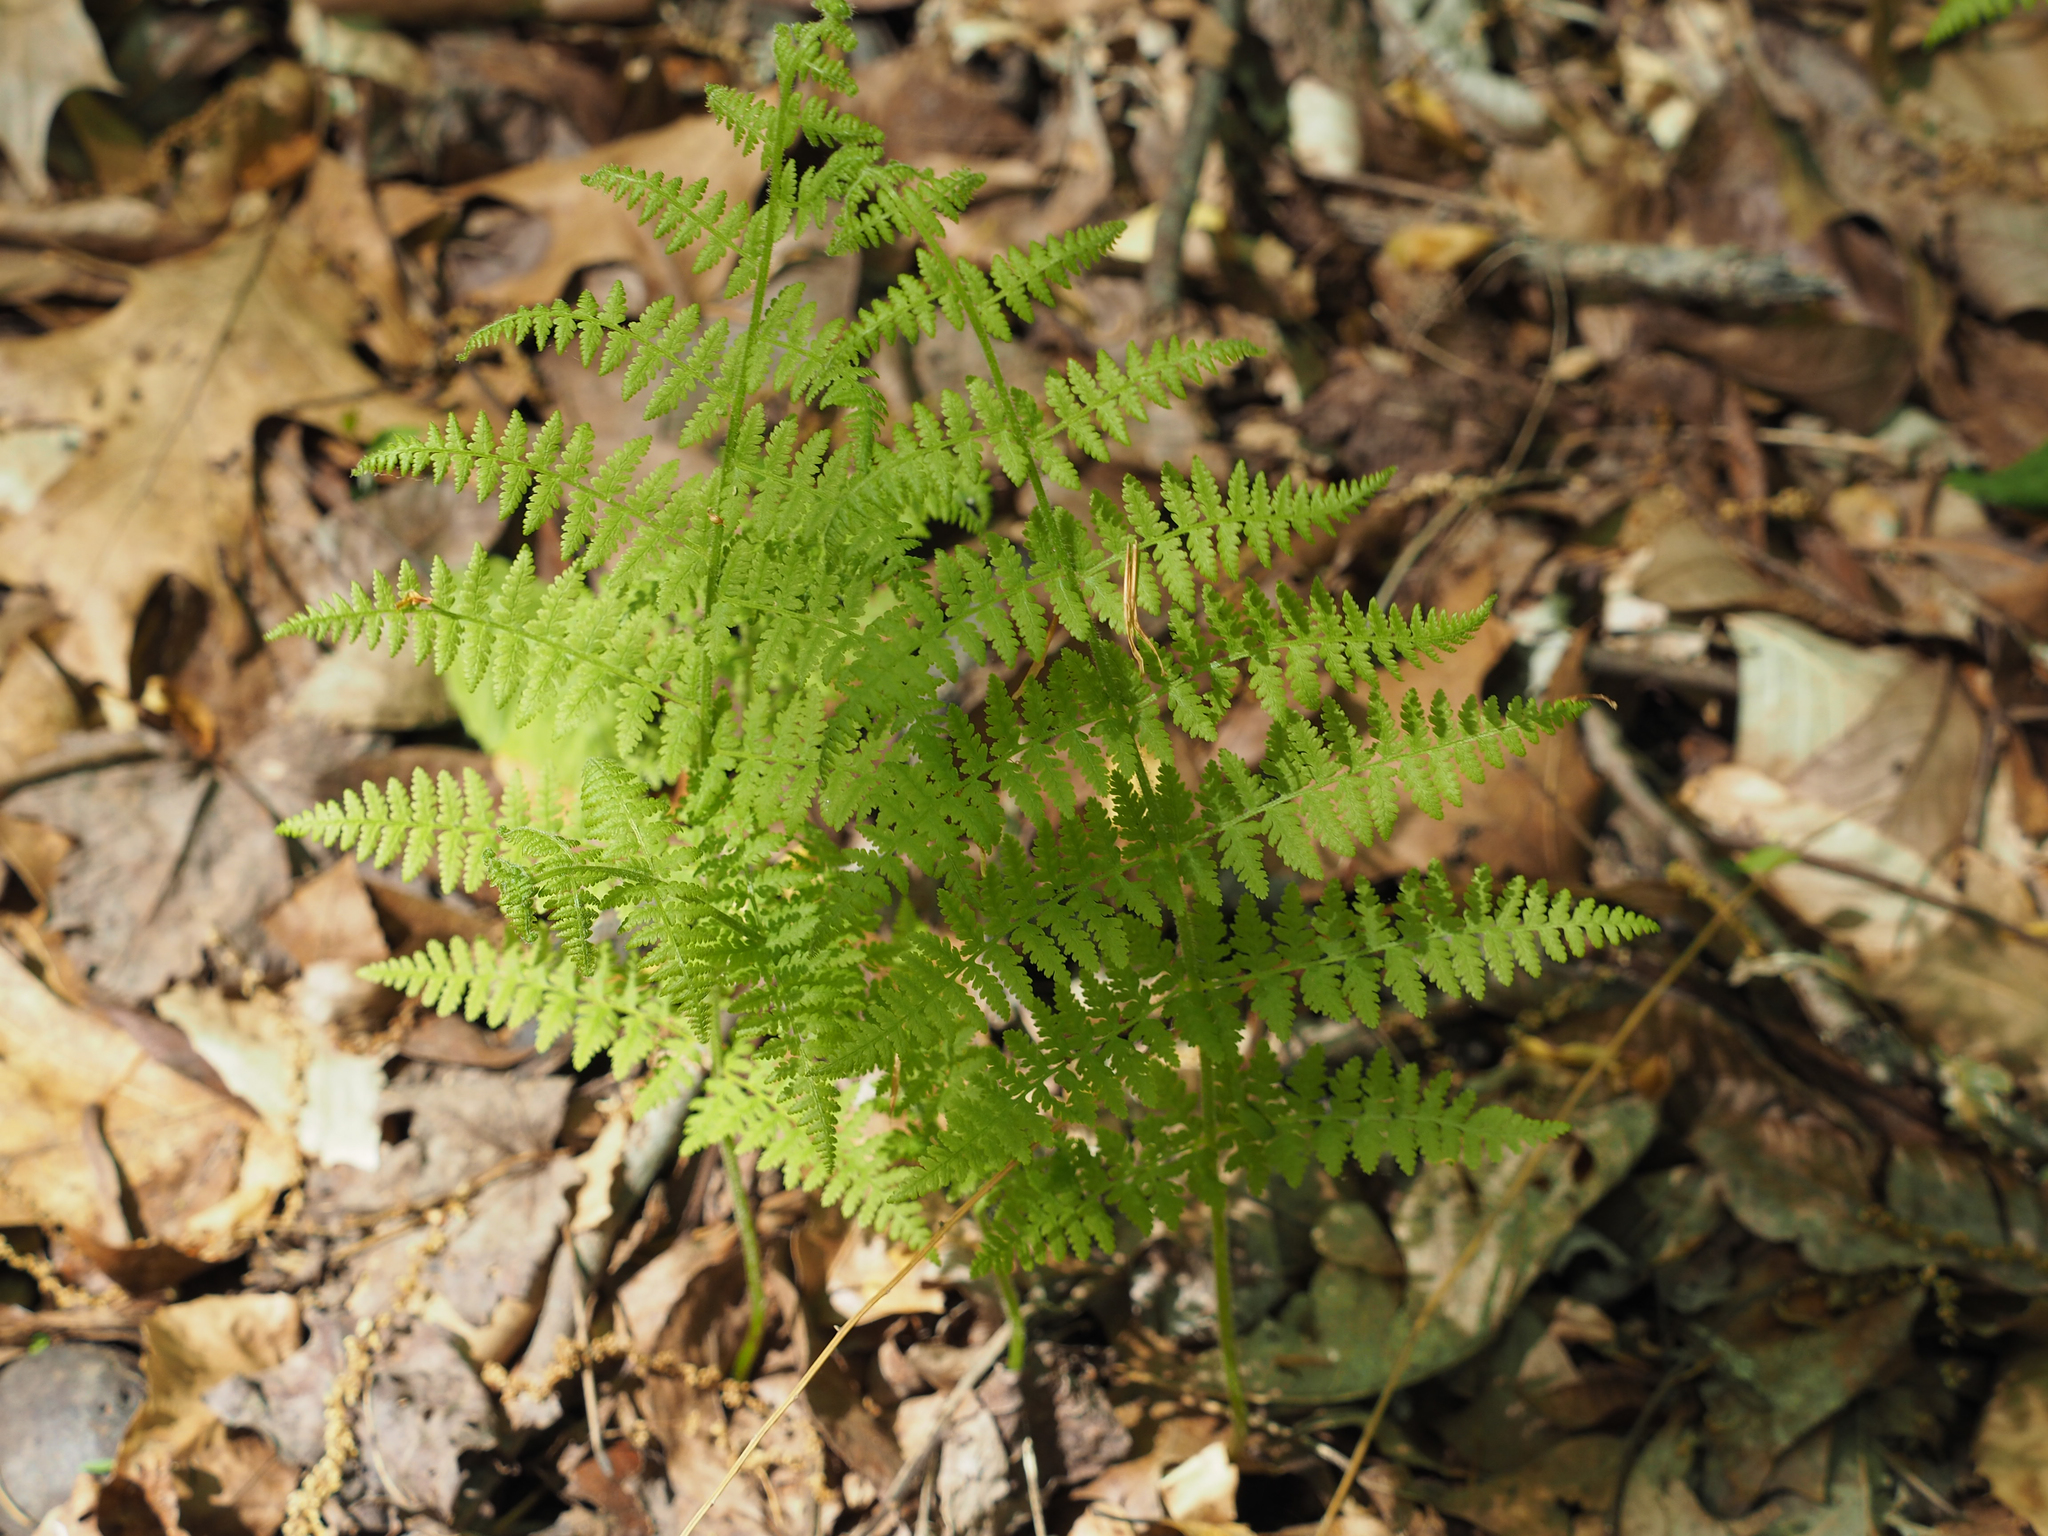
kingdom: Plantae
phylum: Tracheophyta
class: Polypodiopsida
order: Polypodiales
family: Dennstaedtiaceae
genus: Sitobolium
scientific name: Sitobolium punctilobum
